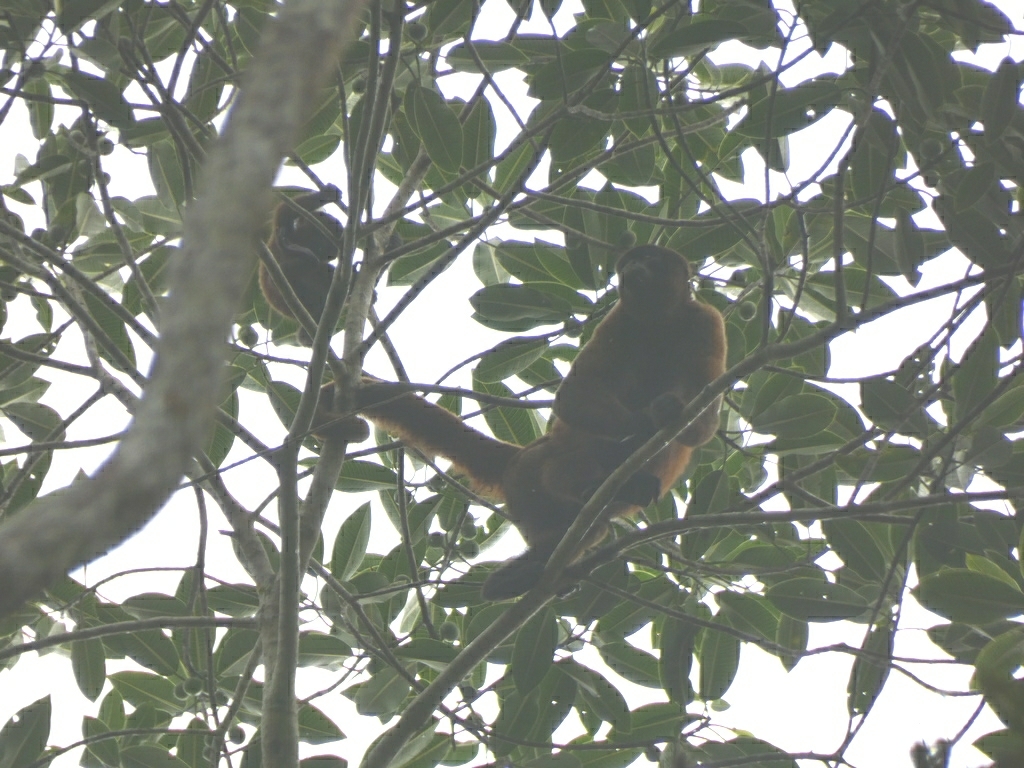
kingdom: Animalia
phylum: Chordata
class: Mammalia
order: Primates
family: Atelidae
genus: Lagothrix
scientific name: Lagothrix lagothricha
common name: Brown woolly monkey
